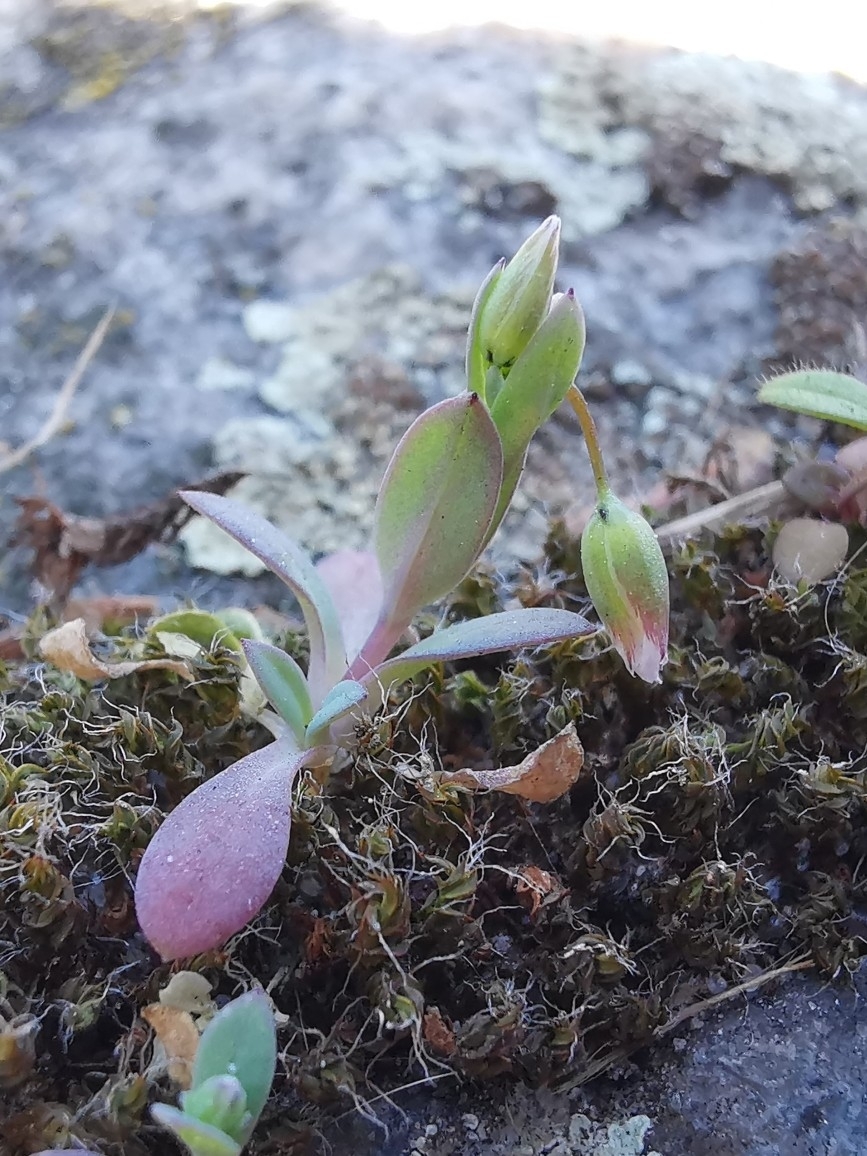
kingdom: Plantae
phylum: Tracheophyta
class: Magnoliopsida
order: Caryophyllales
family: Caryophyllaceae
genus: Holosteum
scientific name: Holosteum umbellatum
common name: Jagged chickweed
